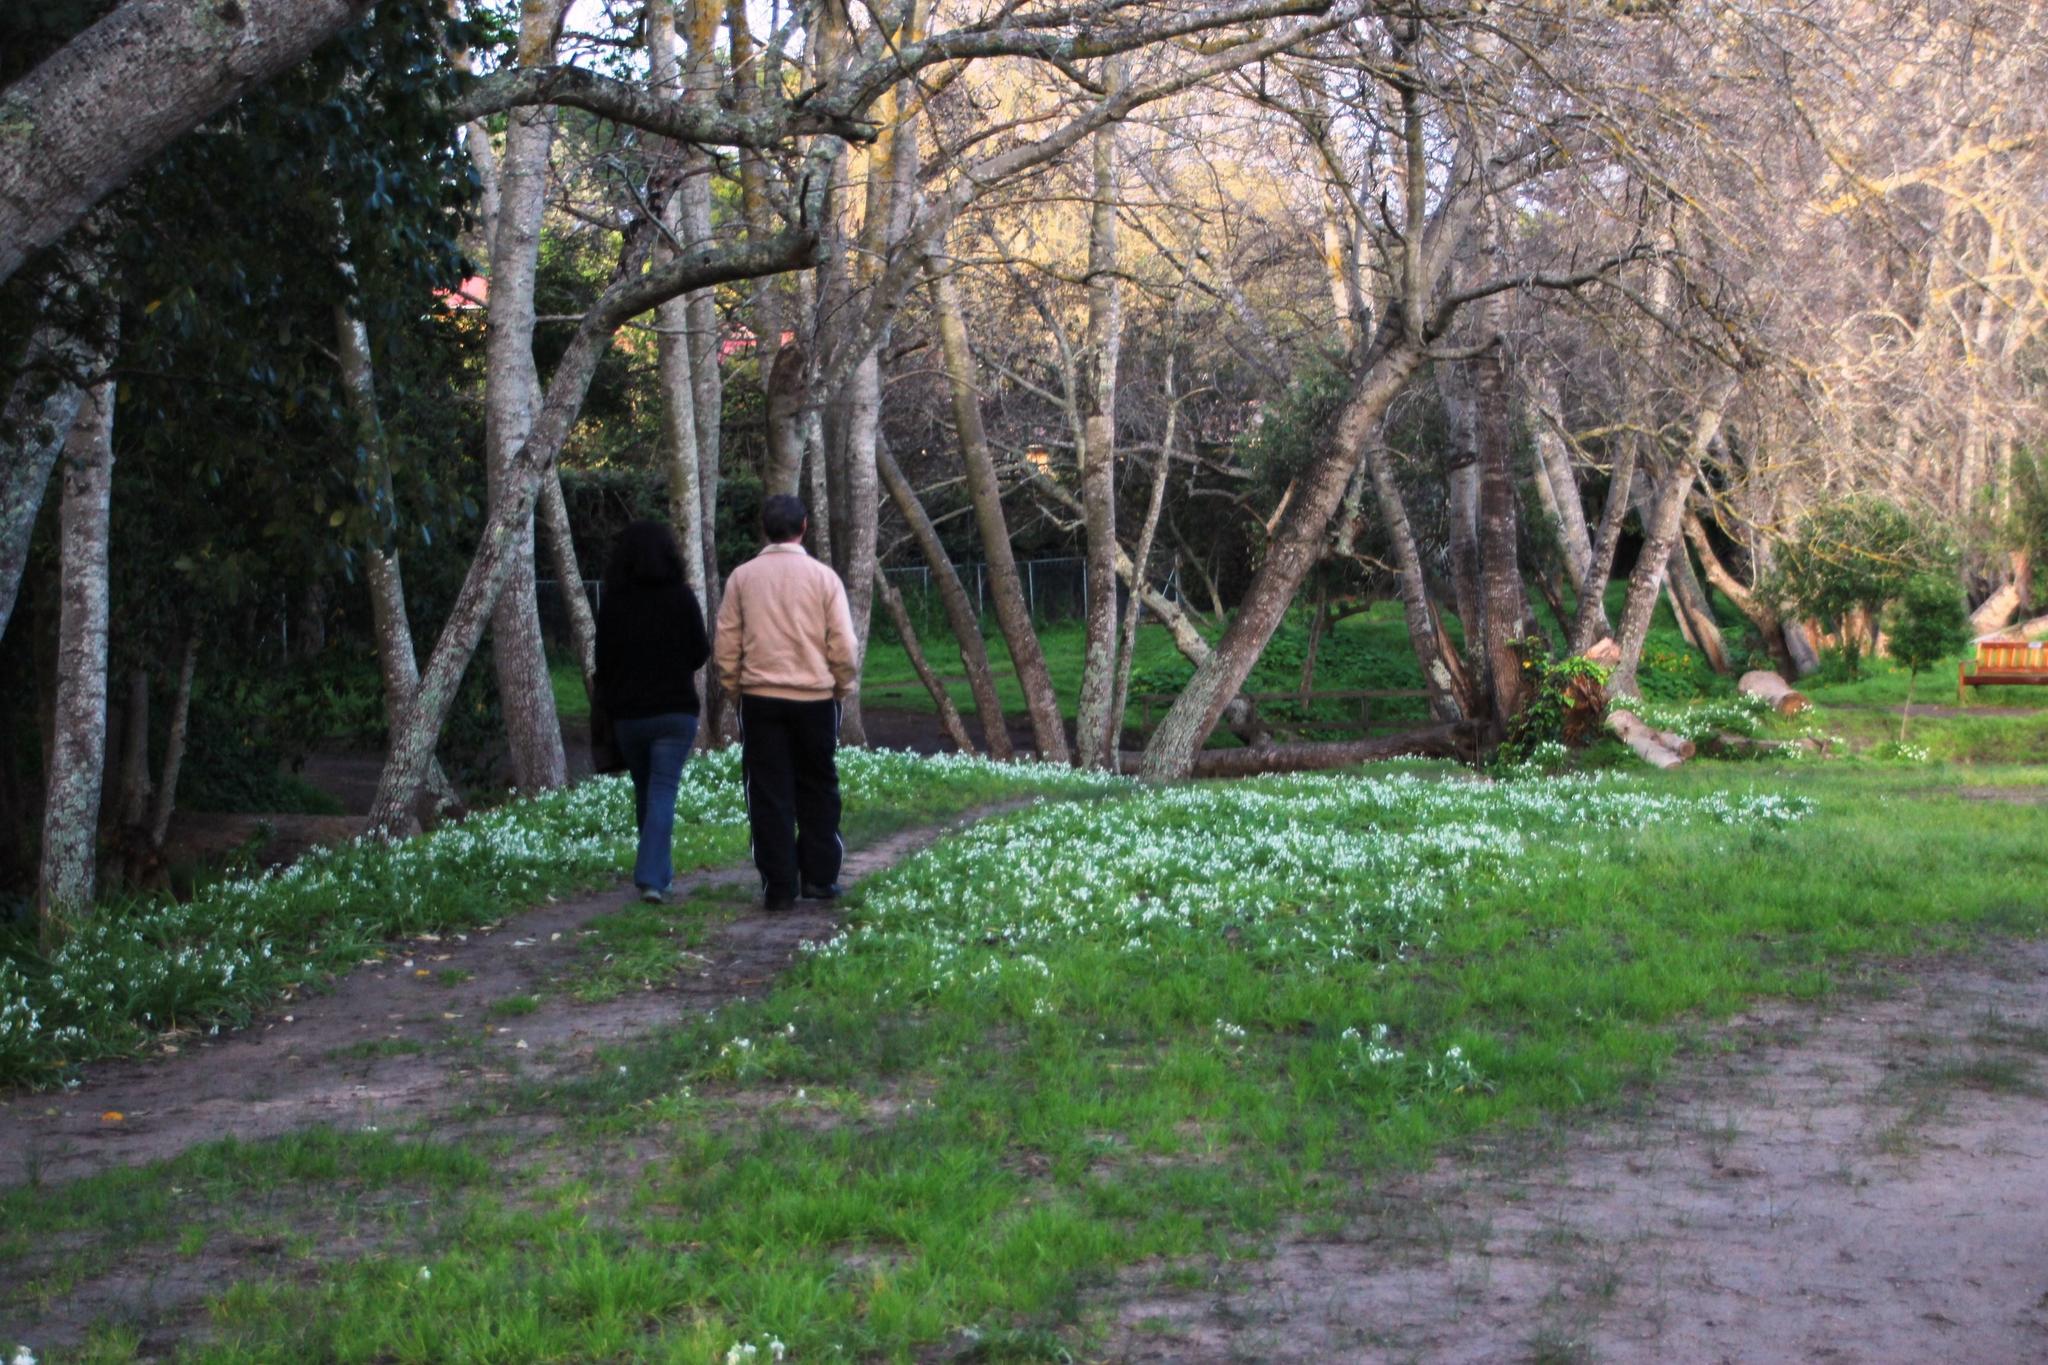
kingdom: Plantae
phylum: Tracheophyta
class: Liliopsida
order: Asparagales
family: Amaryllidaceae
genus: Allium
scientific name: Allium triquetrum
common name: Three-cornered garlic
